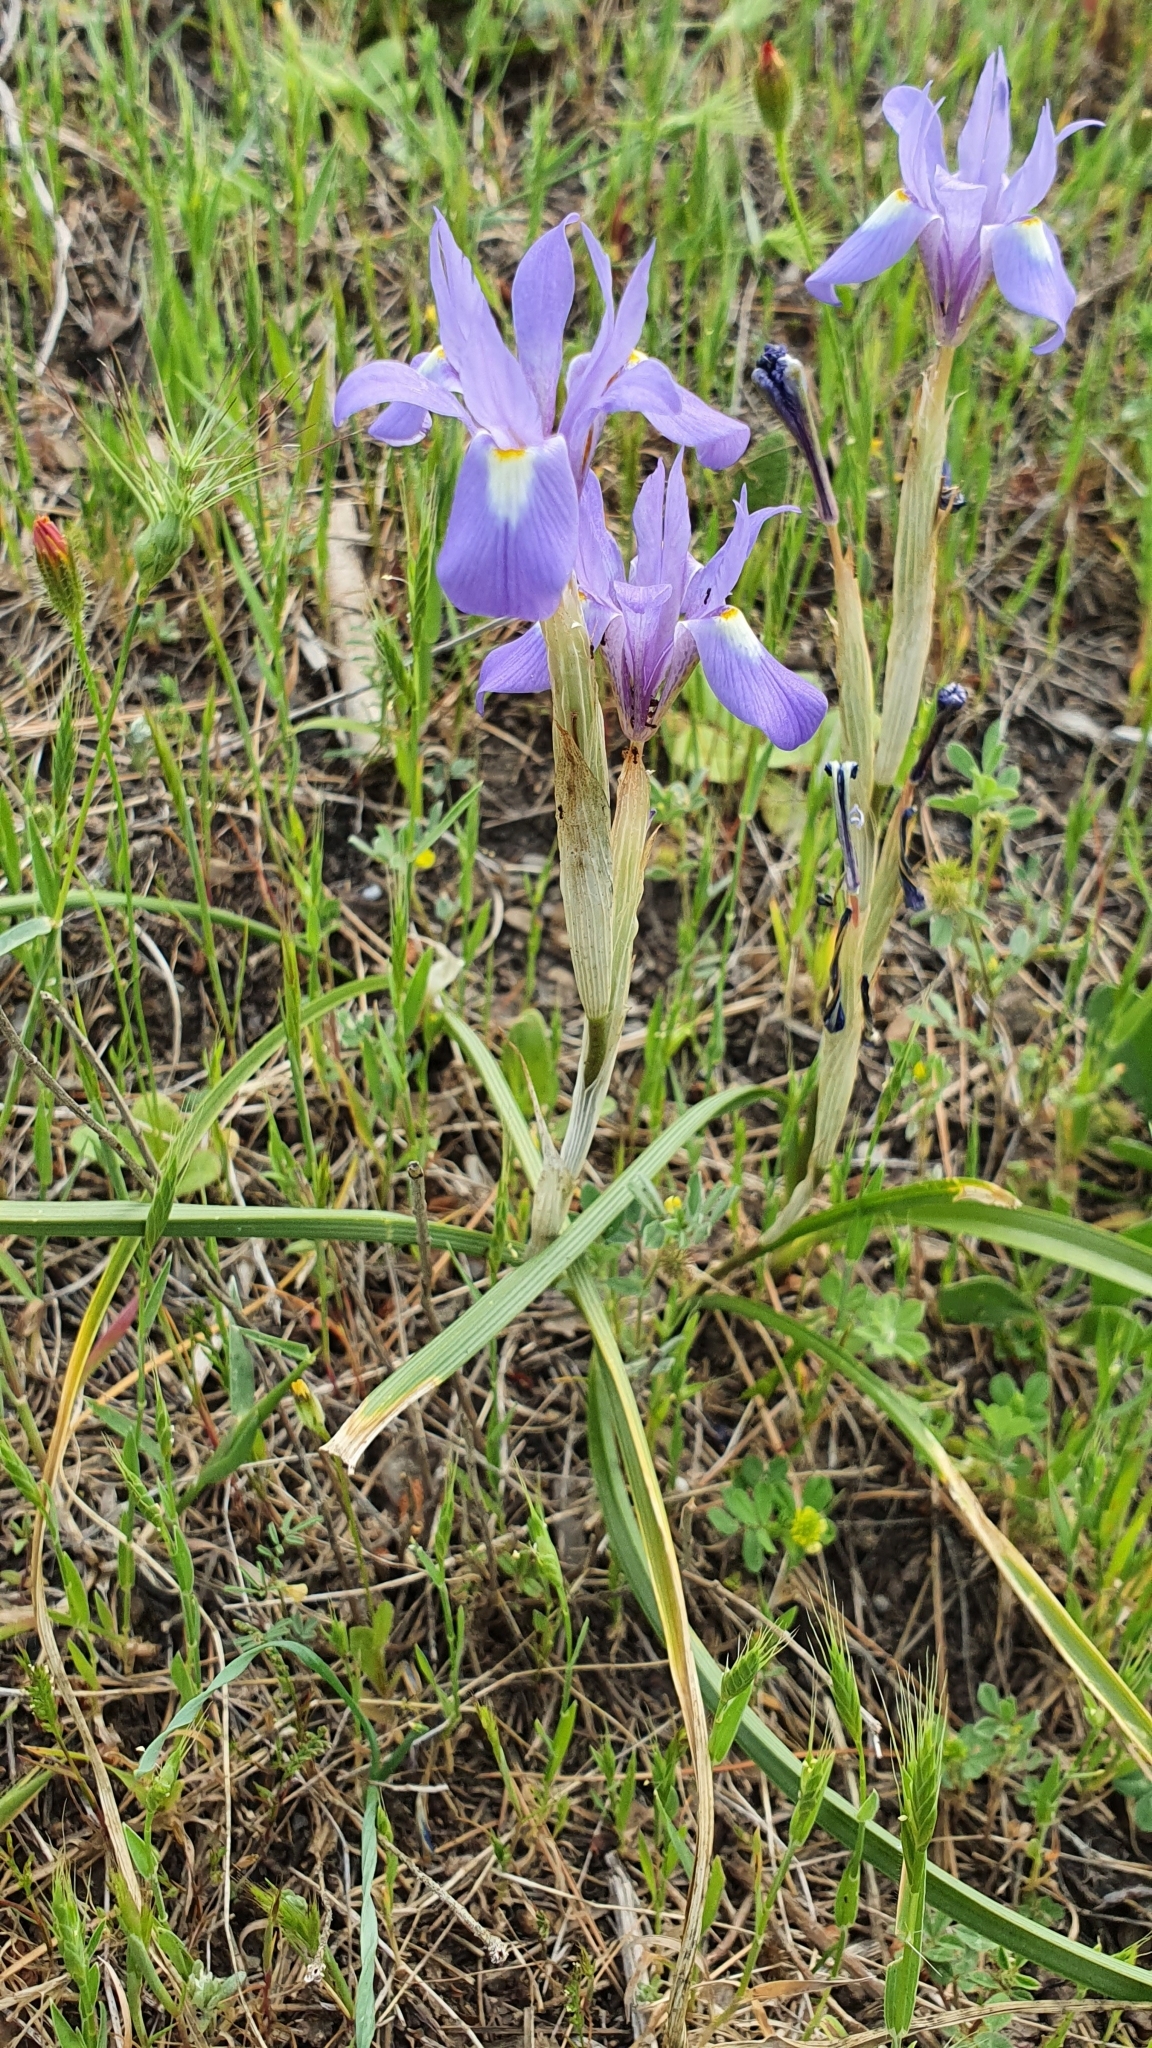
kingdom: Plantae
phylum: Tracheophyta
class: Liliopsida
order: Asparagales
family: Iridaceae
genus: Moraea
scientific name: Moraea sisyrinchium
